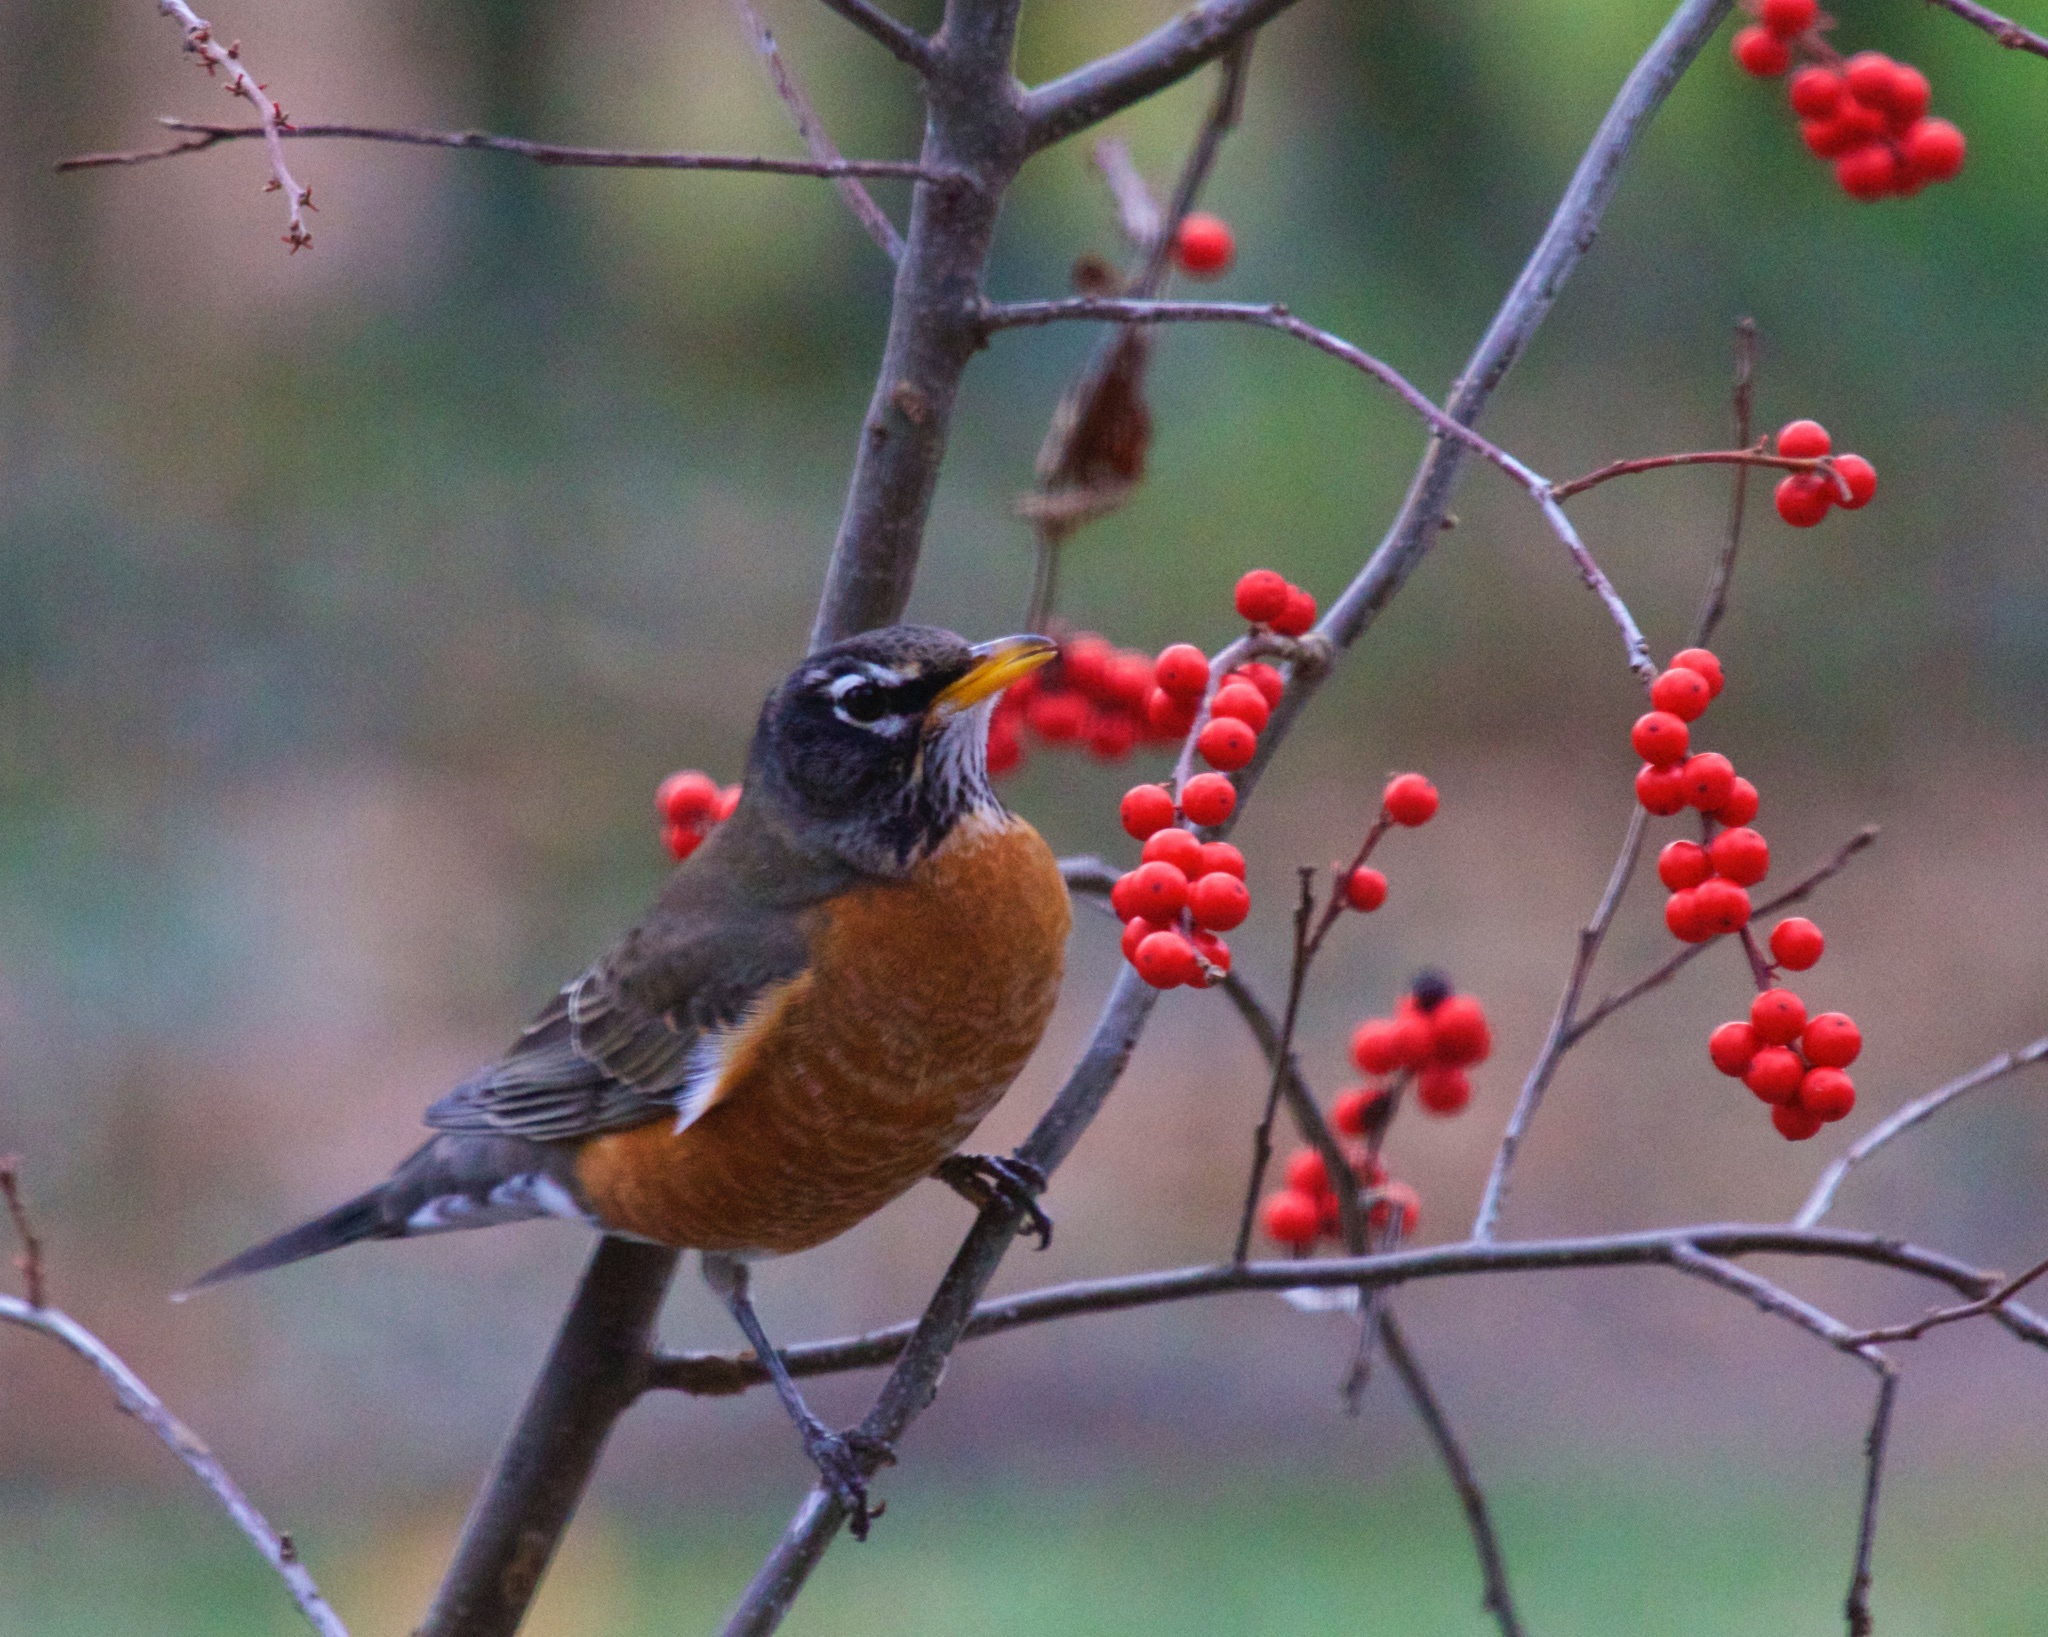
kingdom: Animalia
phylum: Chordata
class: Aves
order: Passeriformes
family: Turdidae
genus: Turdus
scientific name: Turdus migratorius
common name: American robin
